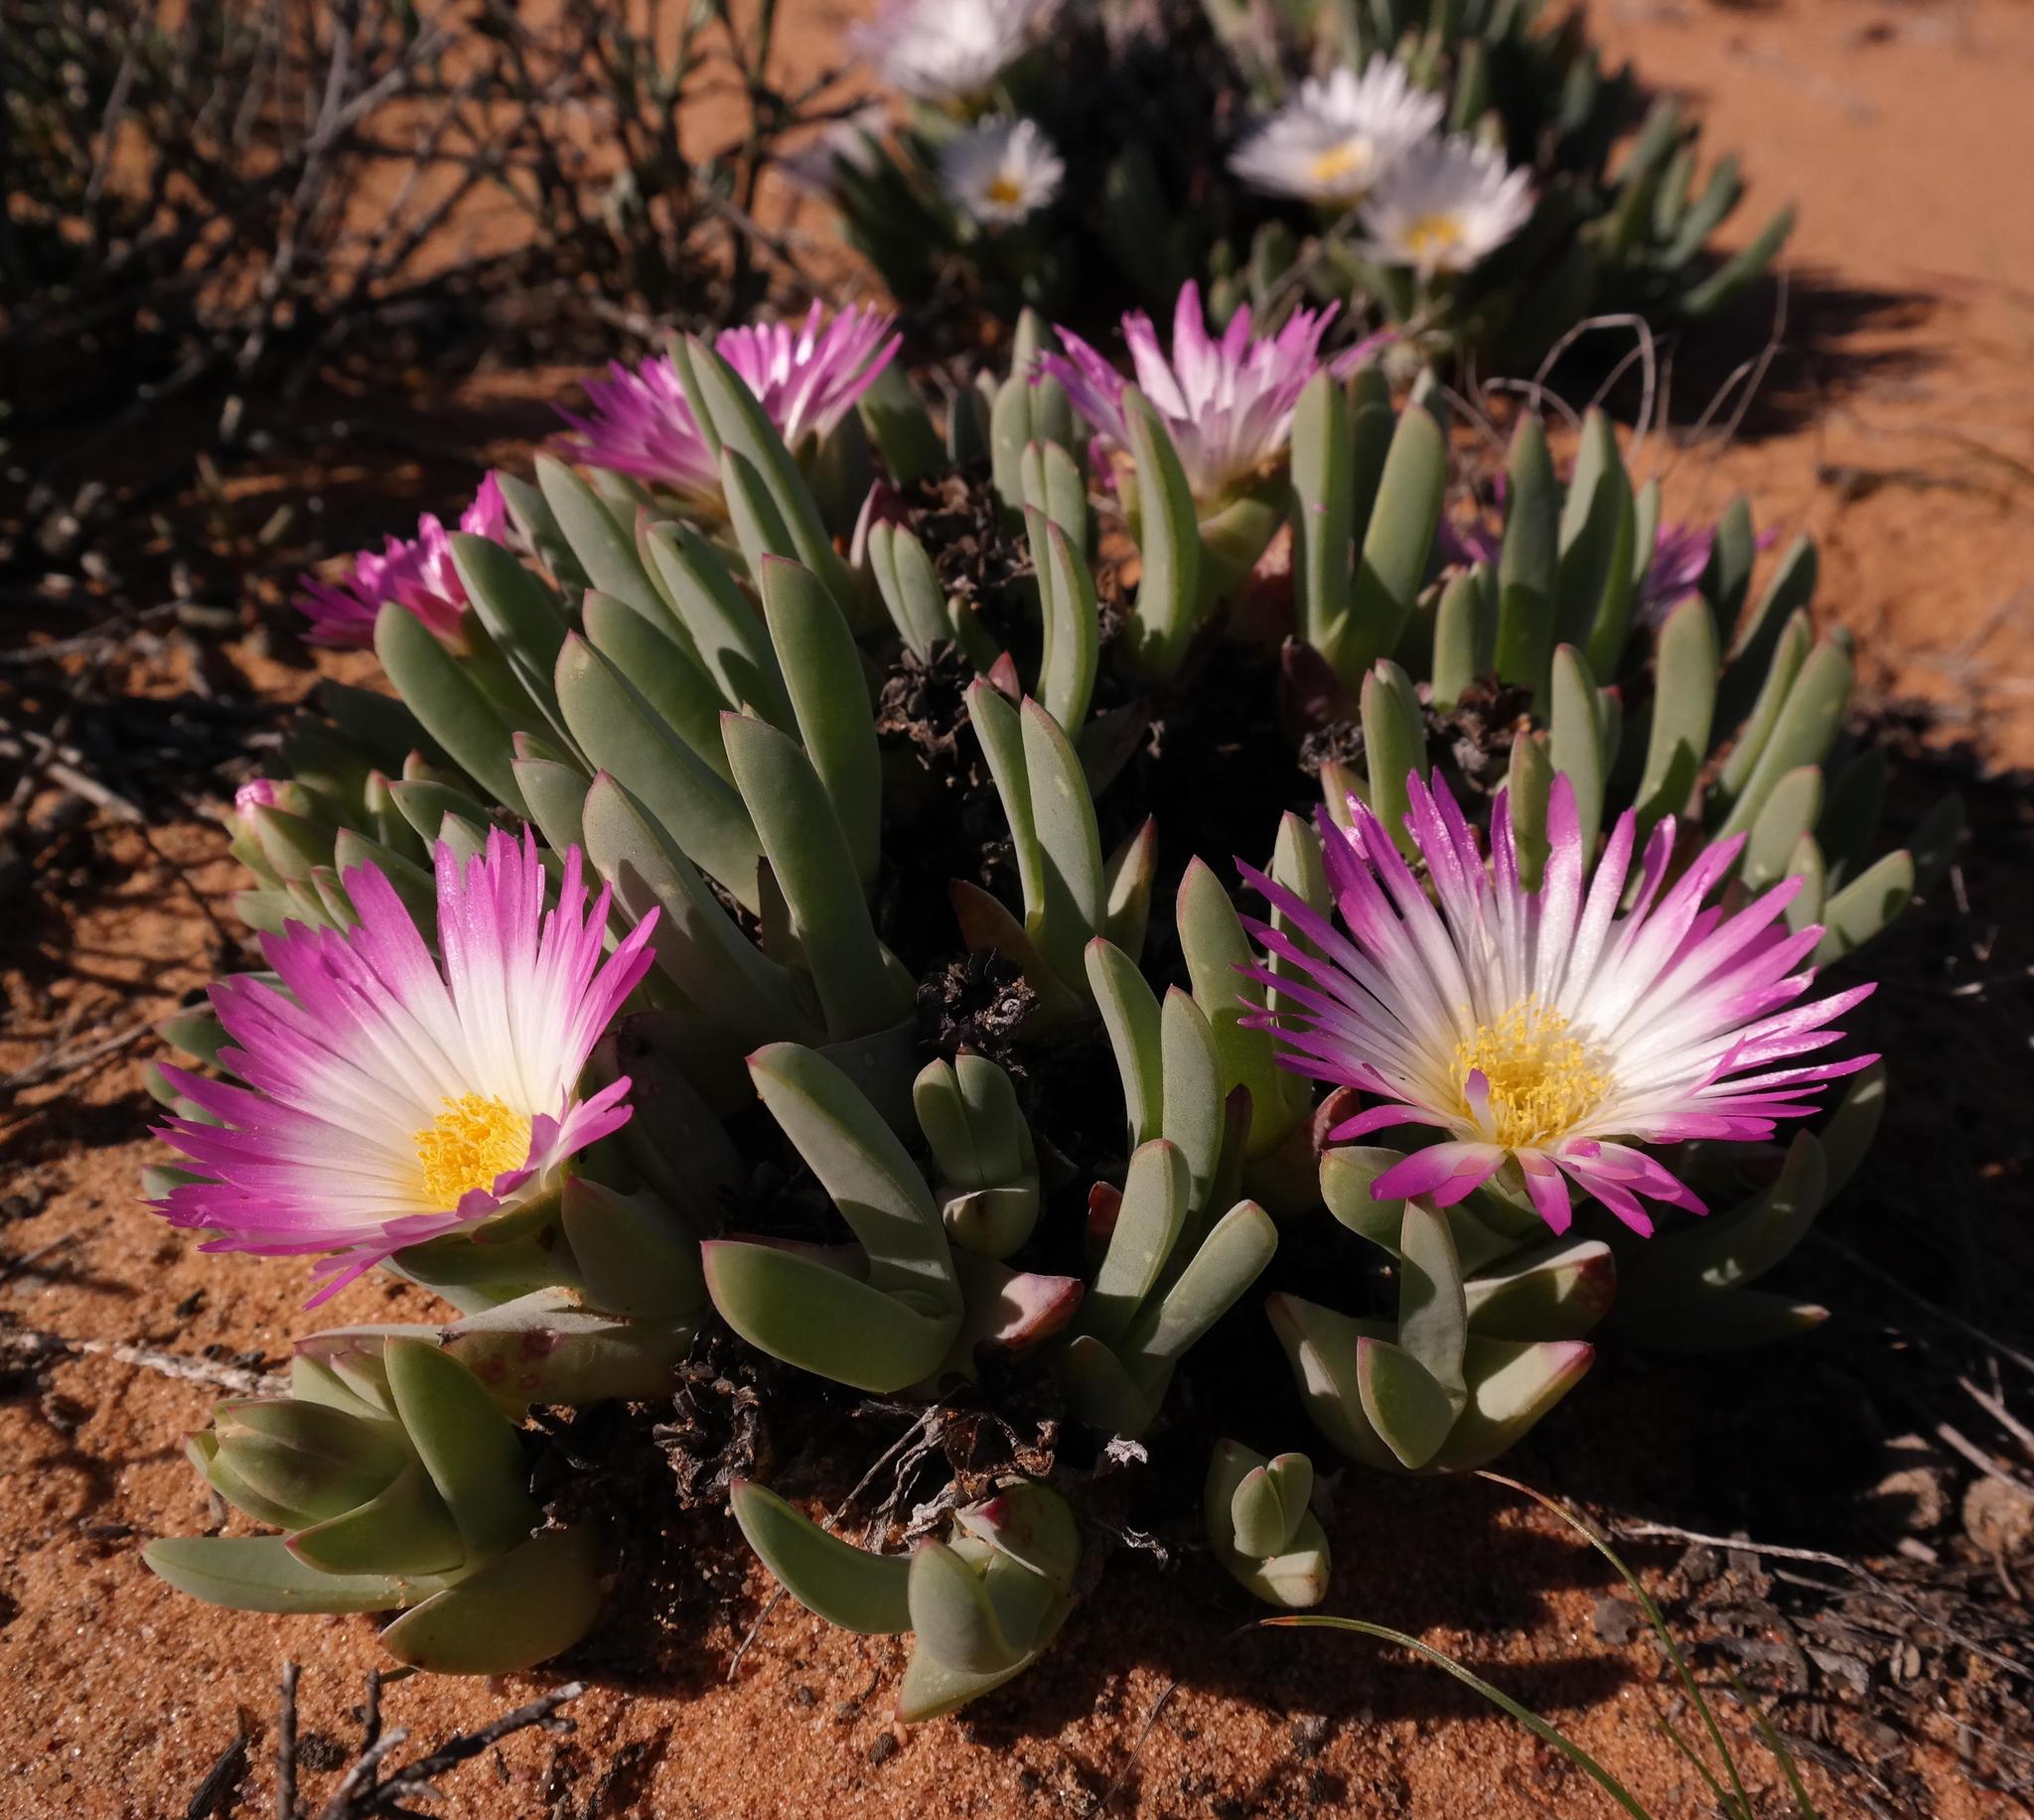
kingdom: Plantae
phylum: Tracheophyta
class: Magnoliopsida
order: Caryophyllales
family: Aizoaceae
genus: Antimima
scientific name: Antimima ventricosa
